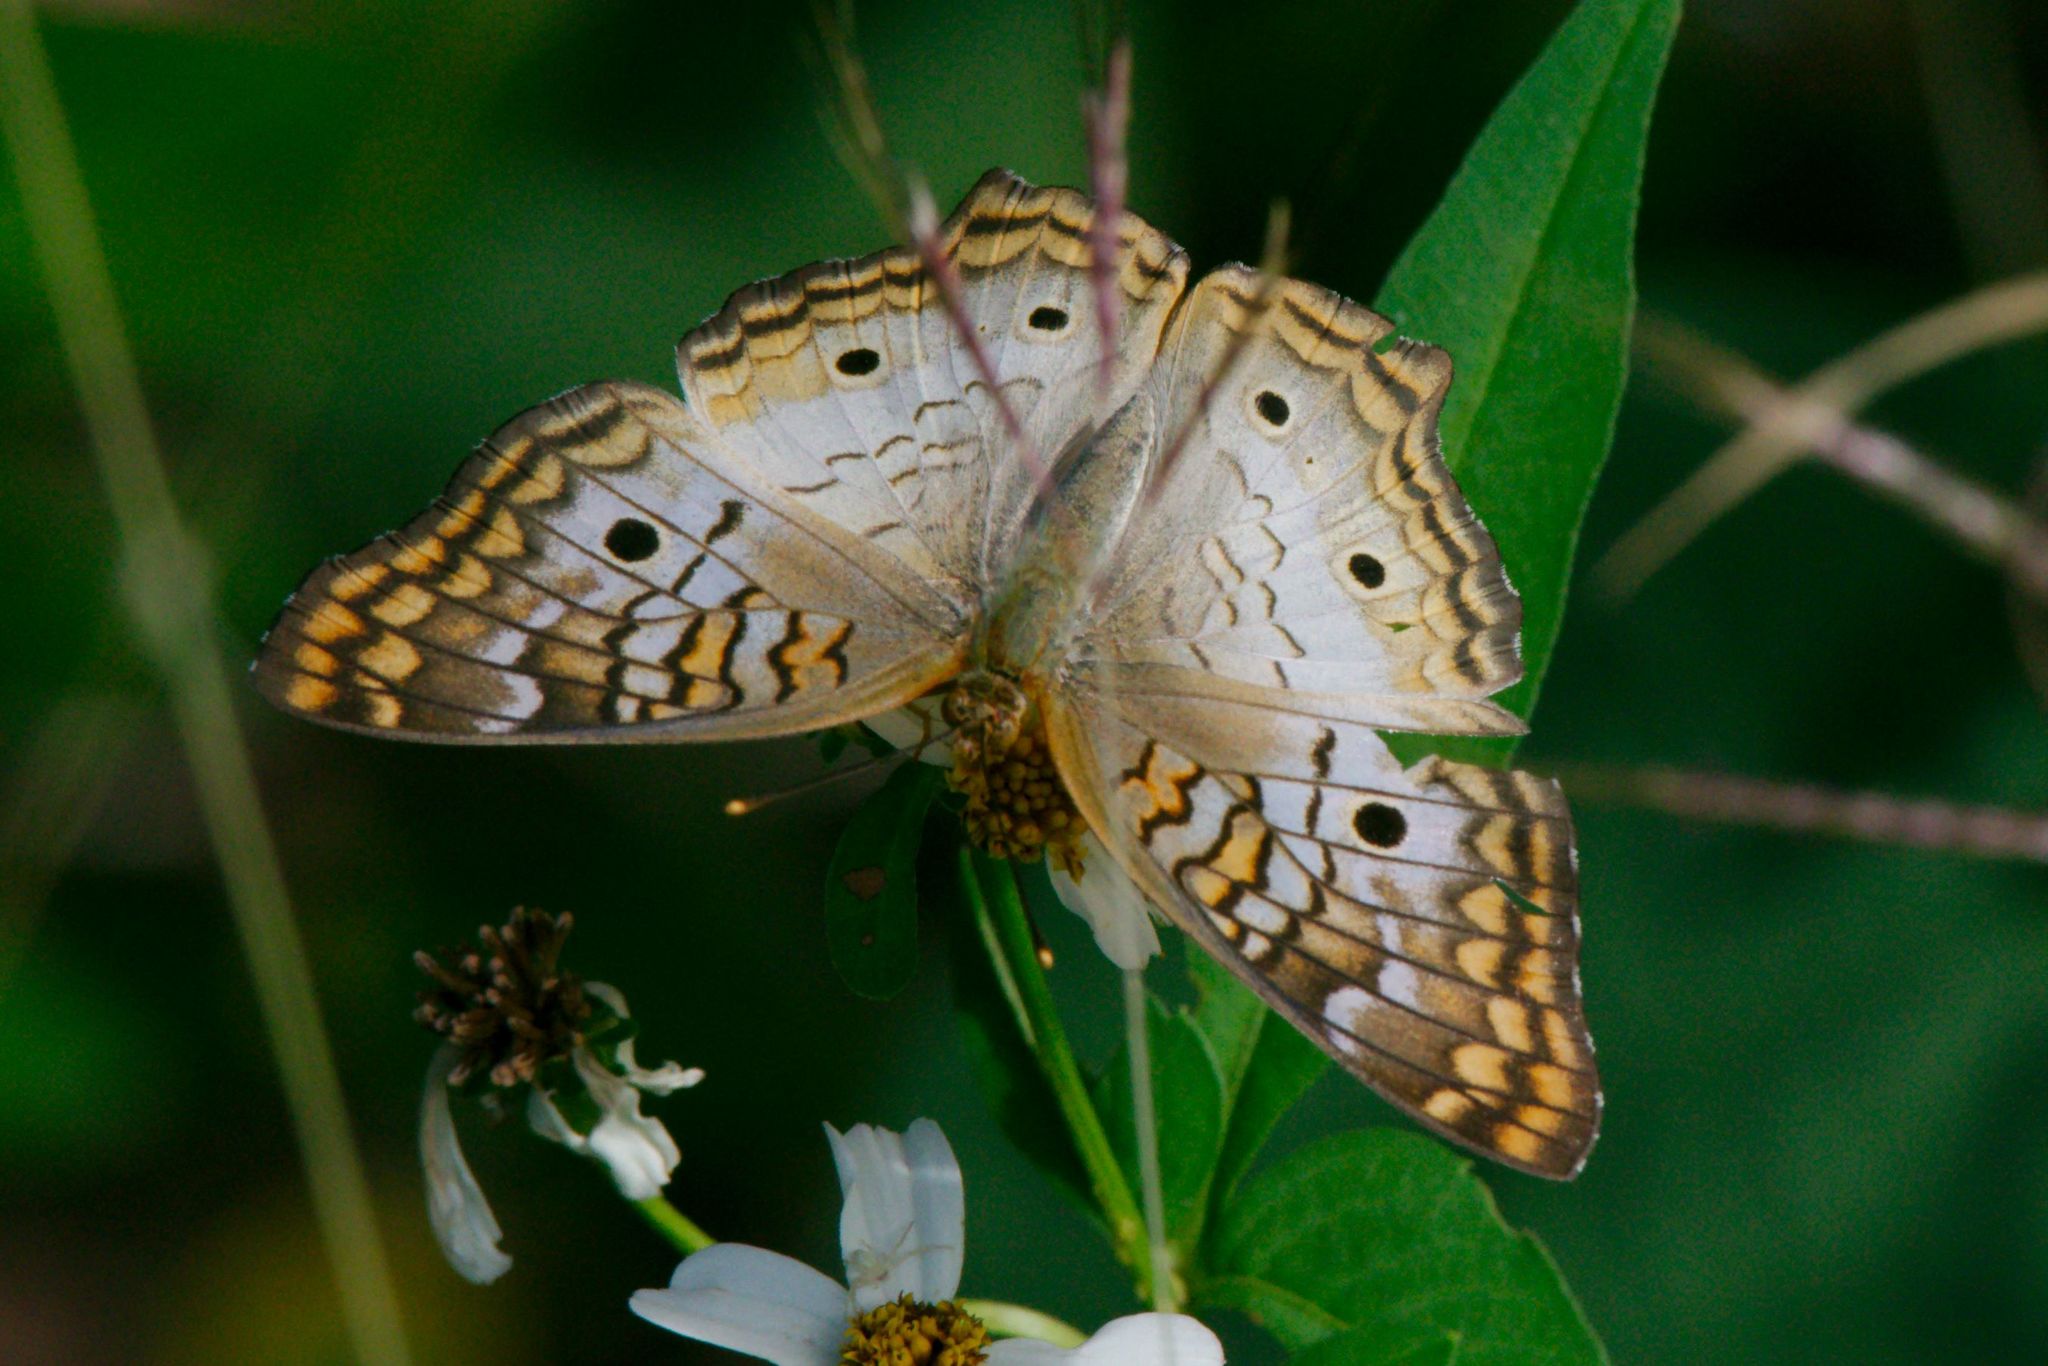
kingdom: Animalia
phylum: Arthropoda
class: Insecta
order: Lepidoptera
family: Nymphalidae
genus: Anartia
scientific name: Anartia jatrophae
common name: White peacock
